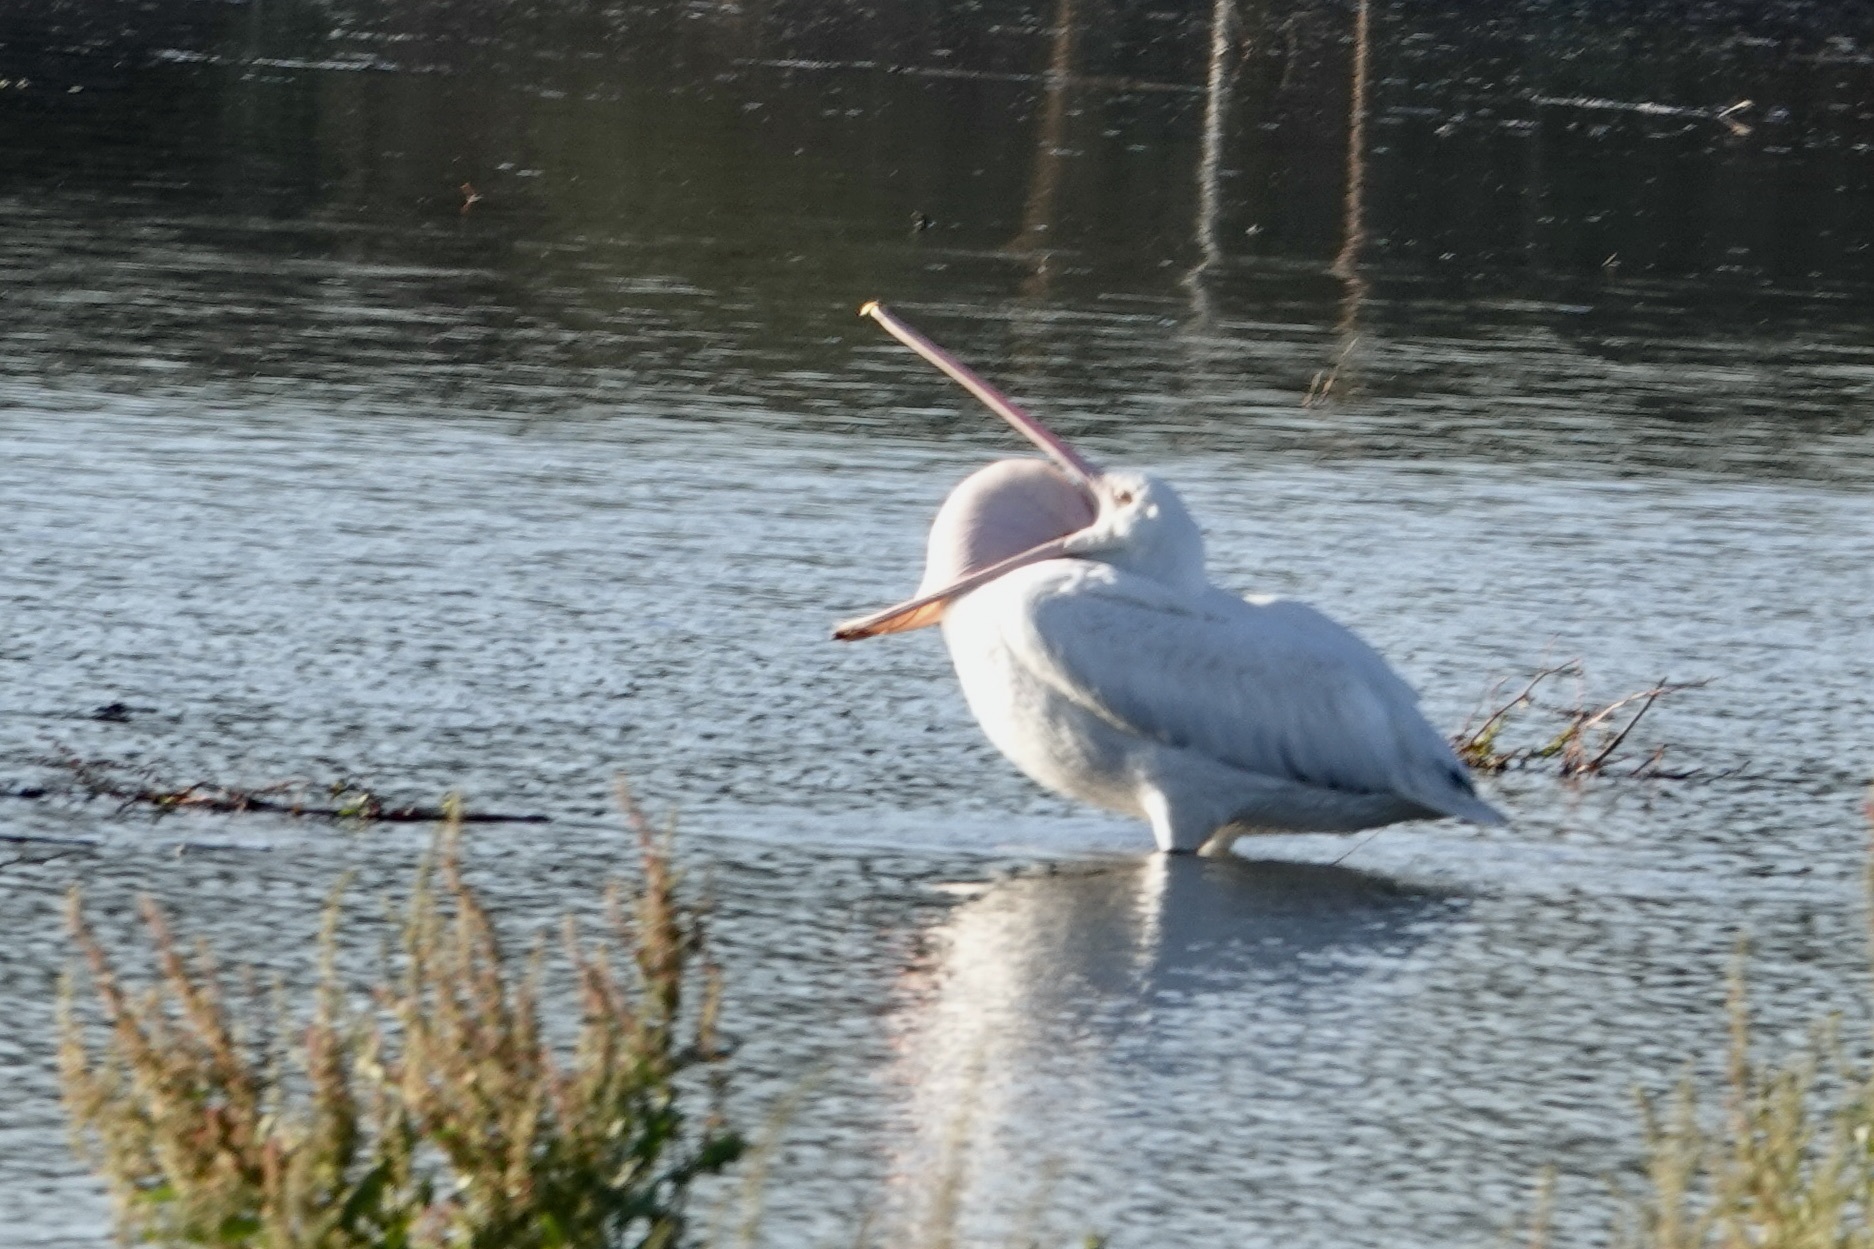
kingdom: Animalia
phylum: Chordata
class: Aves
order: Pelecaniformes
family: Pelecanidae
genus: Pelecanus
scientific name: Pelecanus erythrorhynchos
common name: American white pelican
